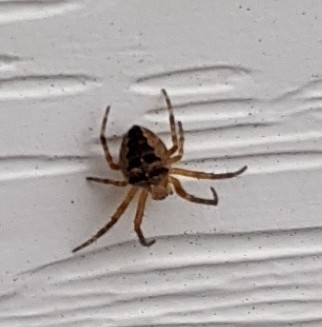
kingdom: Animalia
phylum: Arthropoda
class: Arachnida
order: Araneae
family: Araneidae
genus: Araneus
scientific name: Araneus diadematus
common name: Cross orbweaver
